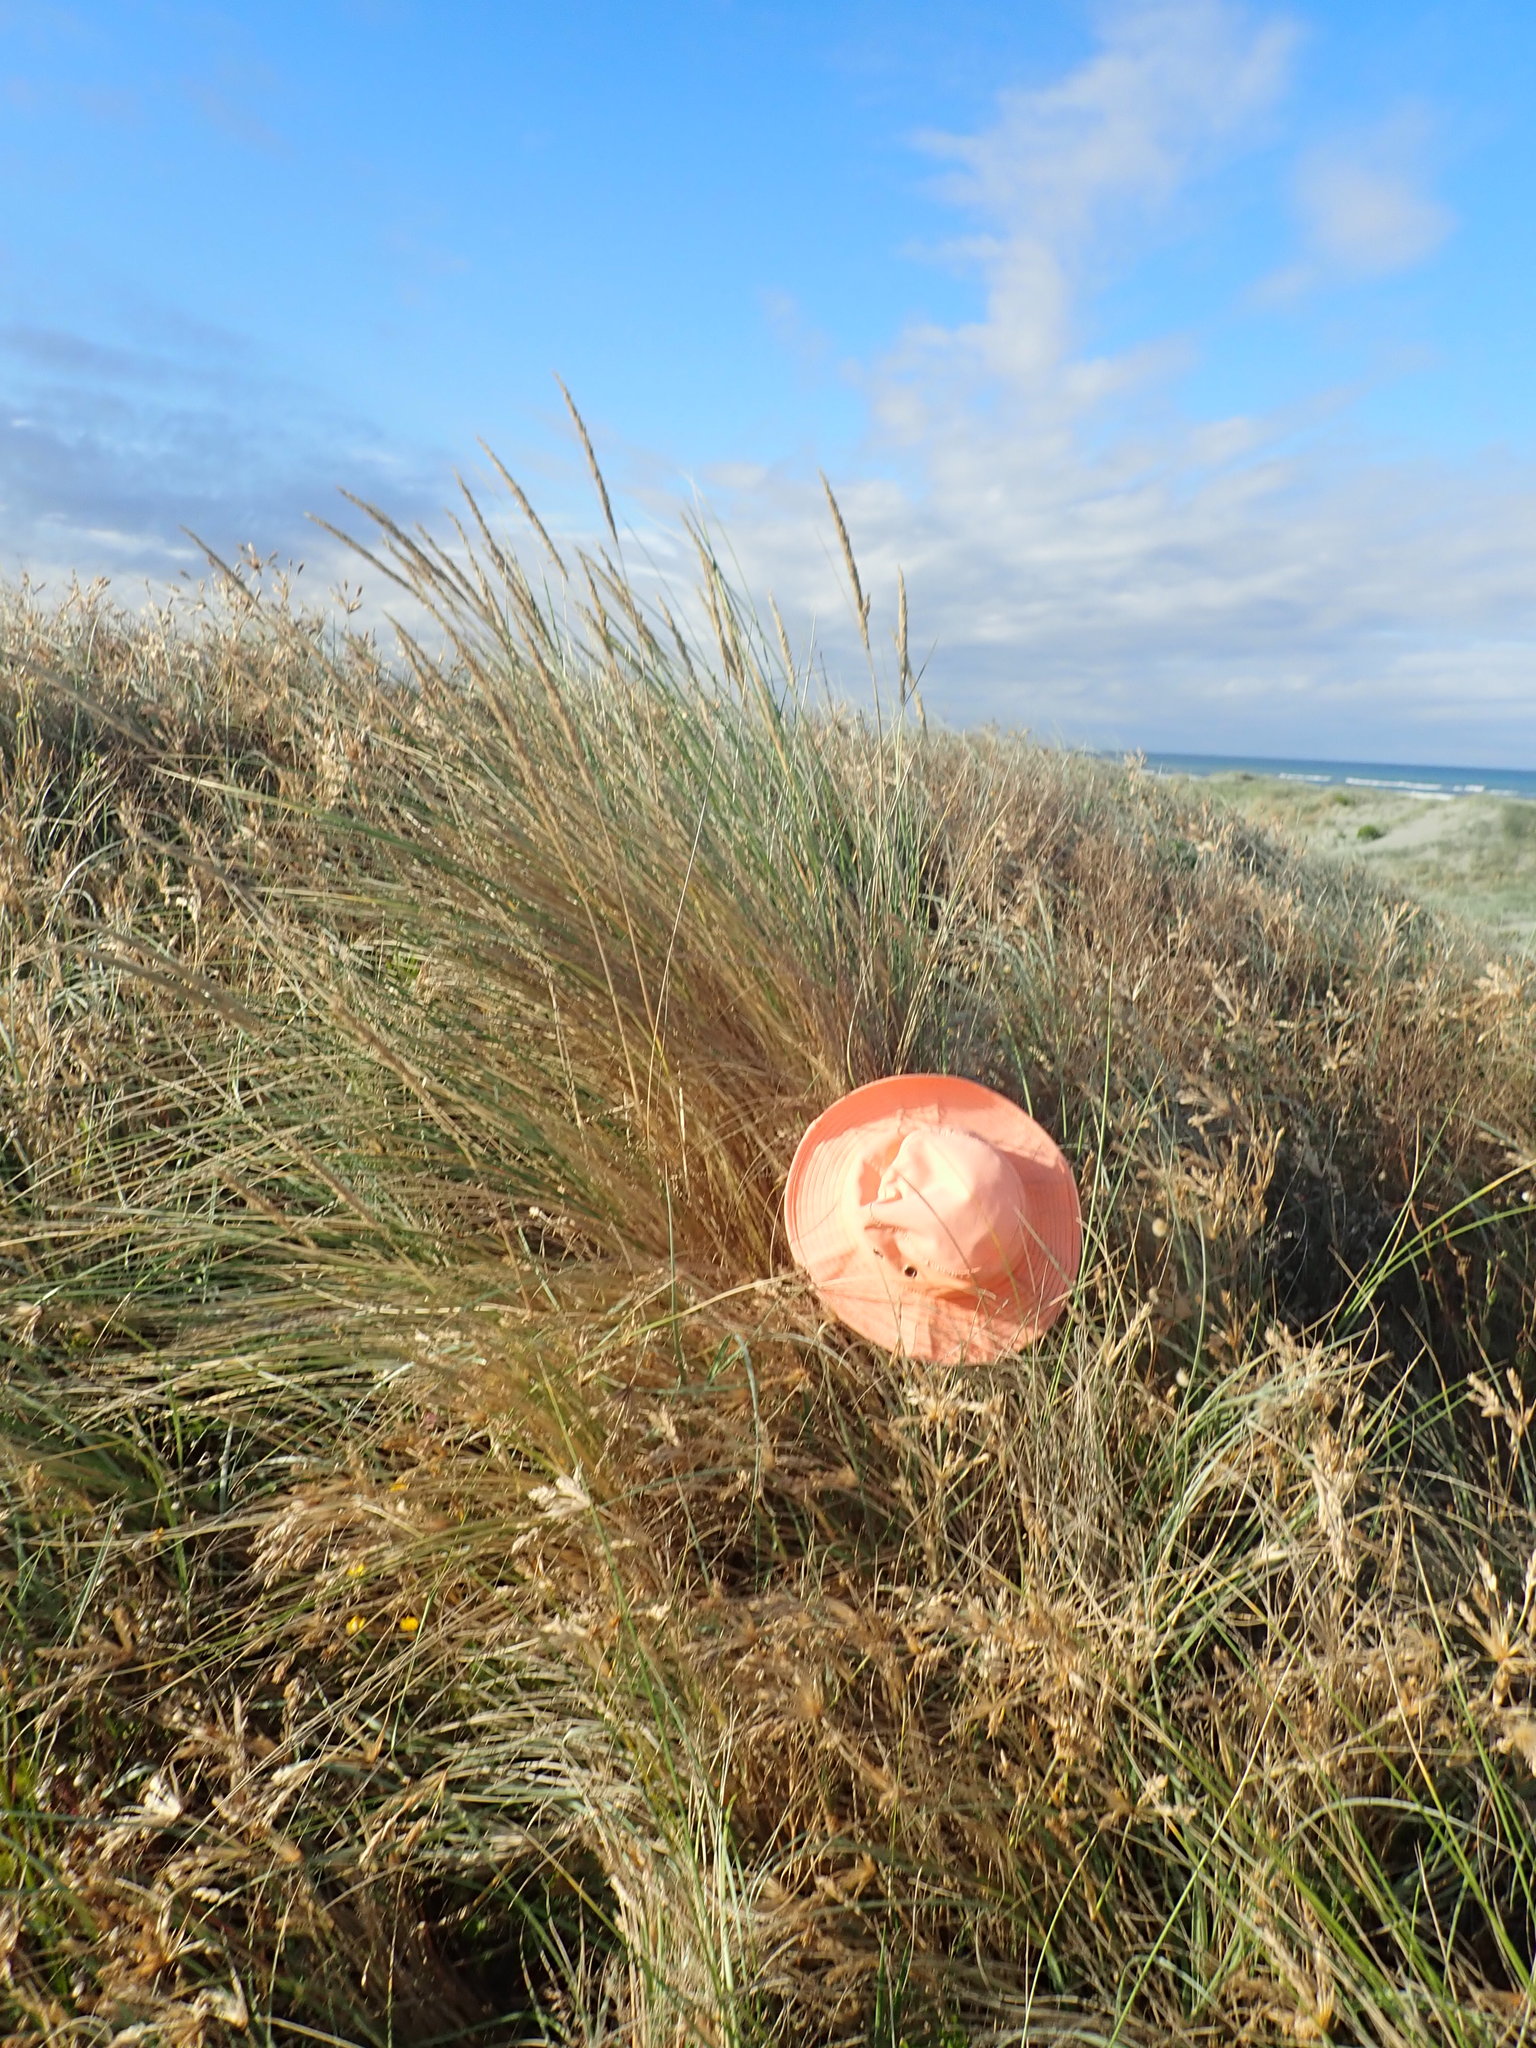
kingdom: Plantae
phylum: Tracheophyta
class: Liliopsida
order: Poales
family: Poaceae
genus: Calamagrostis
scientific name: Calamagrostis arenaria
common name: European beachgrass
